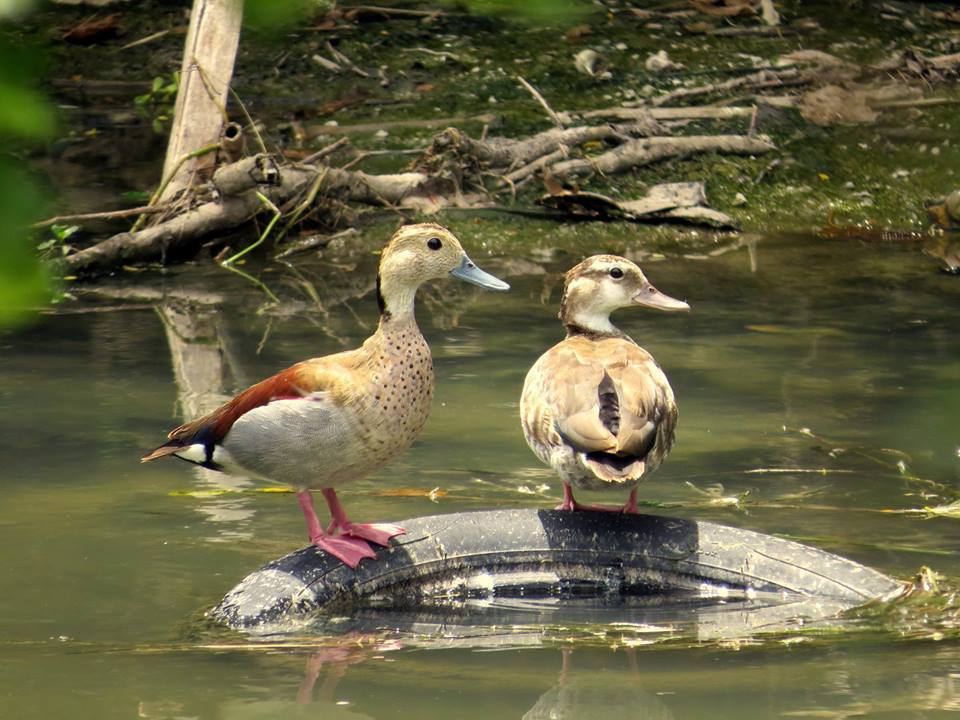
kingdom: Animalia
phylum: Chordata
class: Aves
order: Anseriformes
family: Anatidae
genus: Callonetta
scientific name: Callonetta leucophrys
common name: Ringed teal
